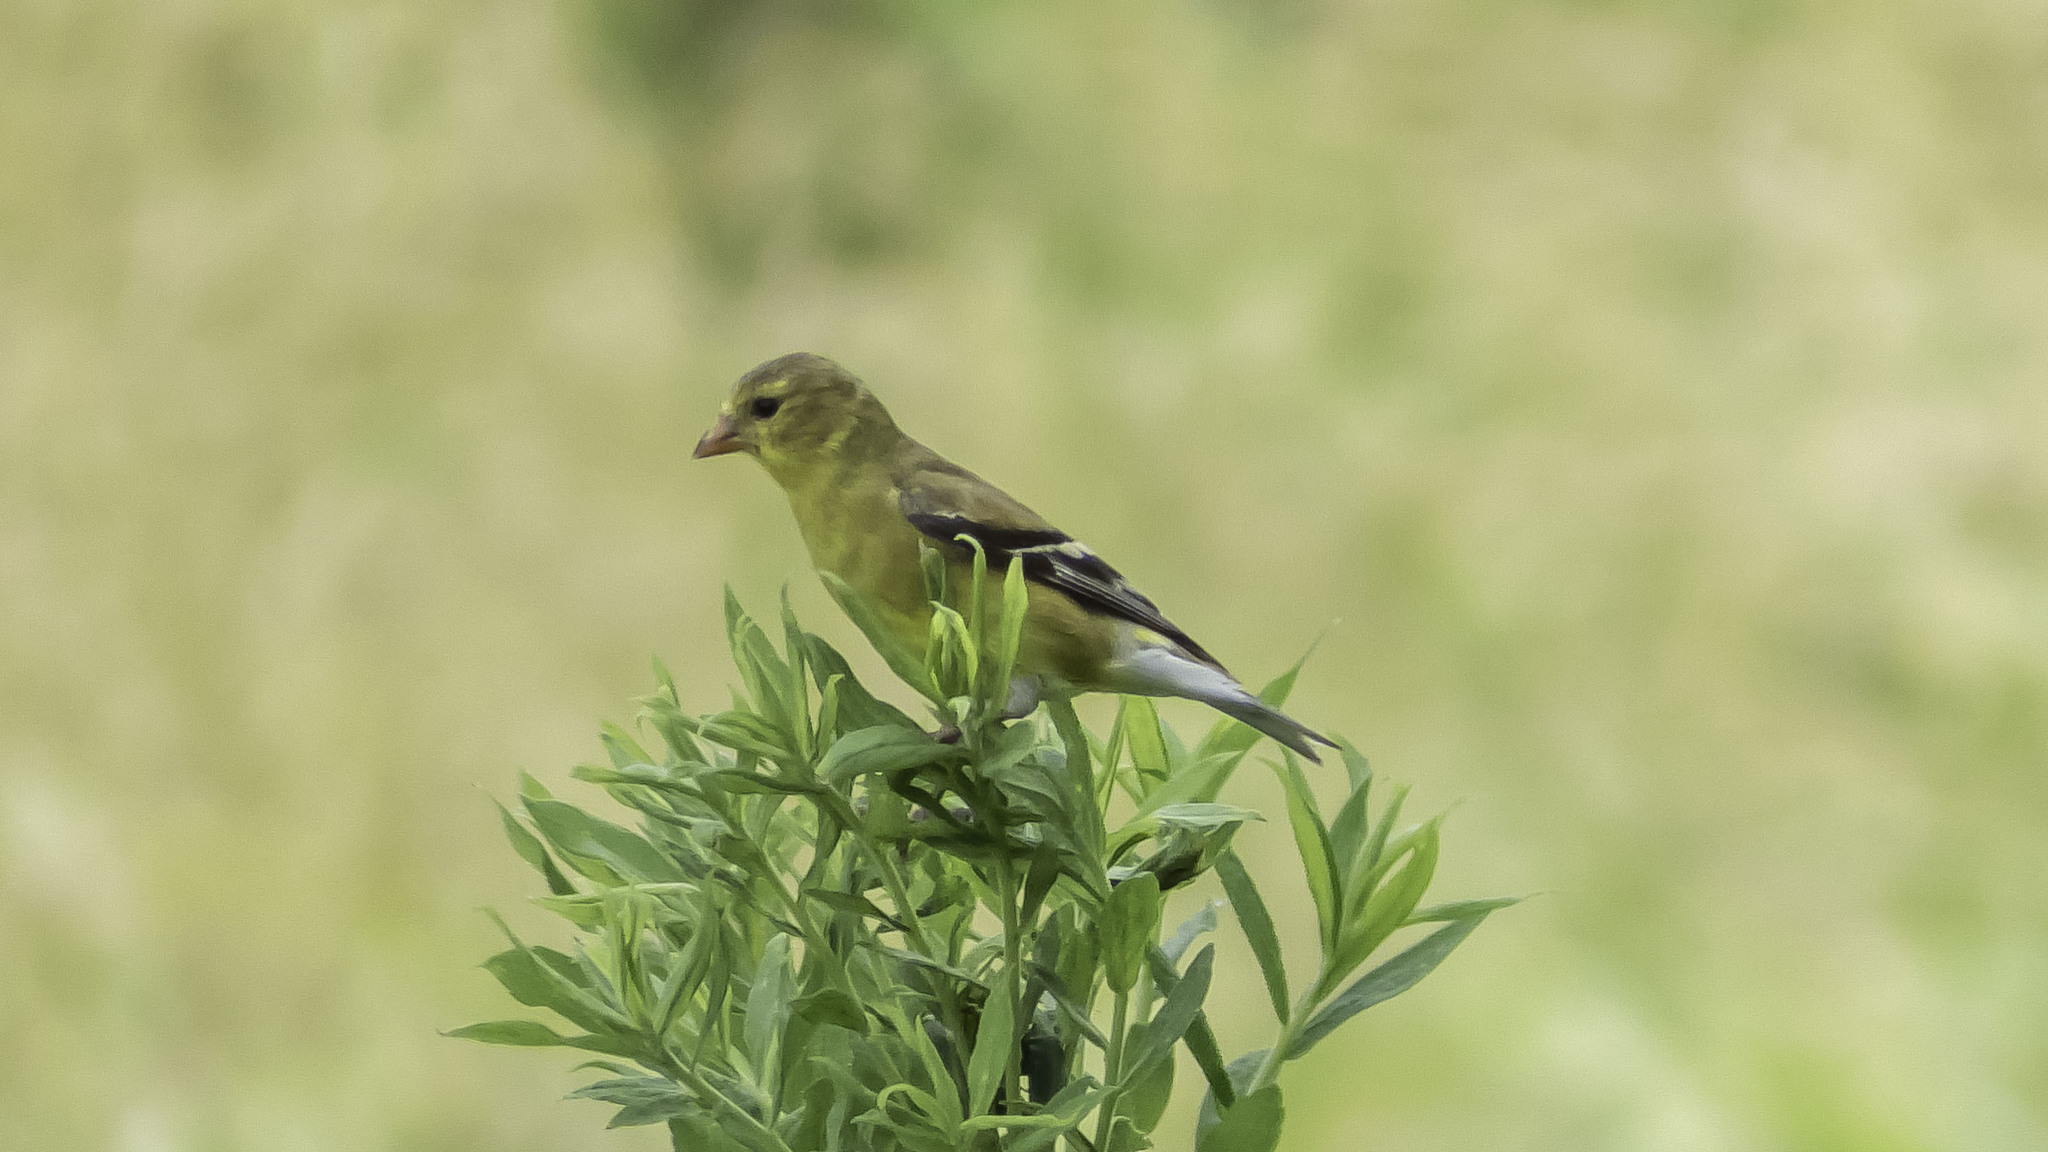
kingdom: Animalia
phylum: Chordata
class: Aves
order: Passeriformes
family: Fringillidae
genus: Spinus
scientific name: Spinus tristis
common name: American goldfinch
